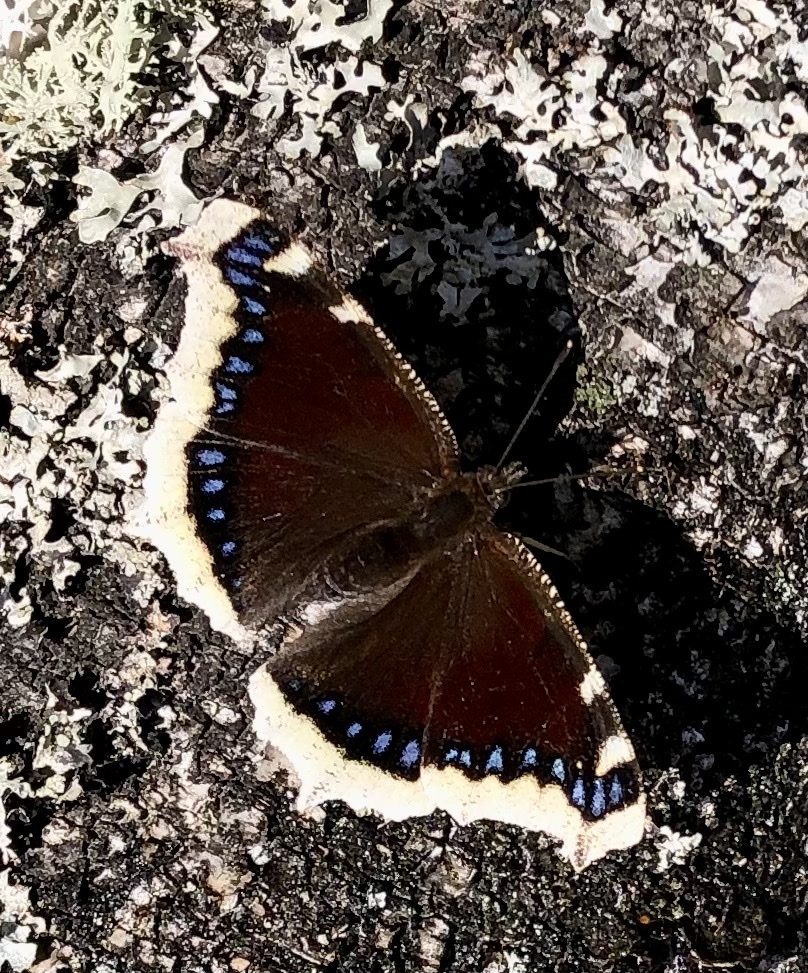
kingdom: Animalia
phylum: Arthropoda
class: Insecta
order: Lepidoptera
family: Nymphalidae
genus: Nymphalis
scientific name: Nymphalis antiopa
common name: Camberwell beauty
